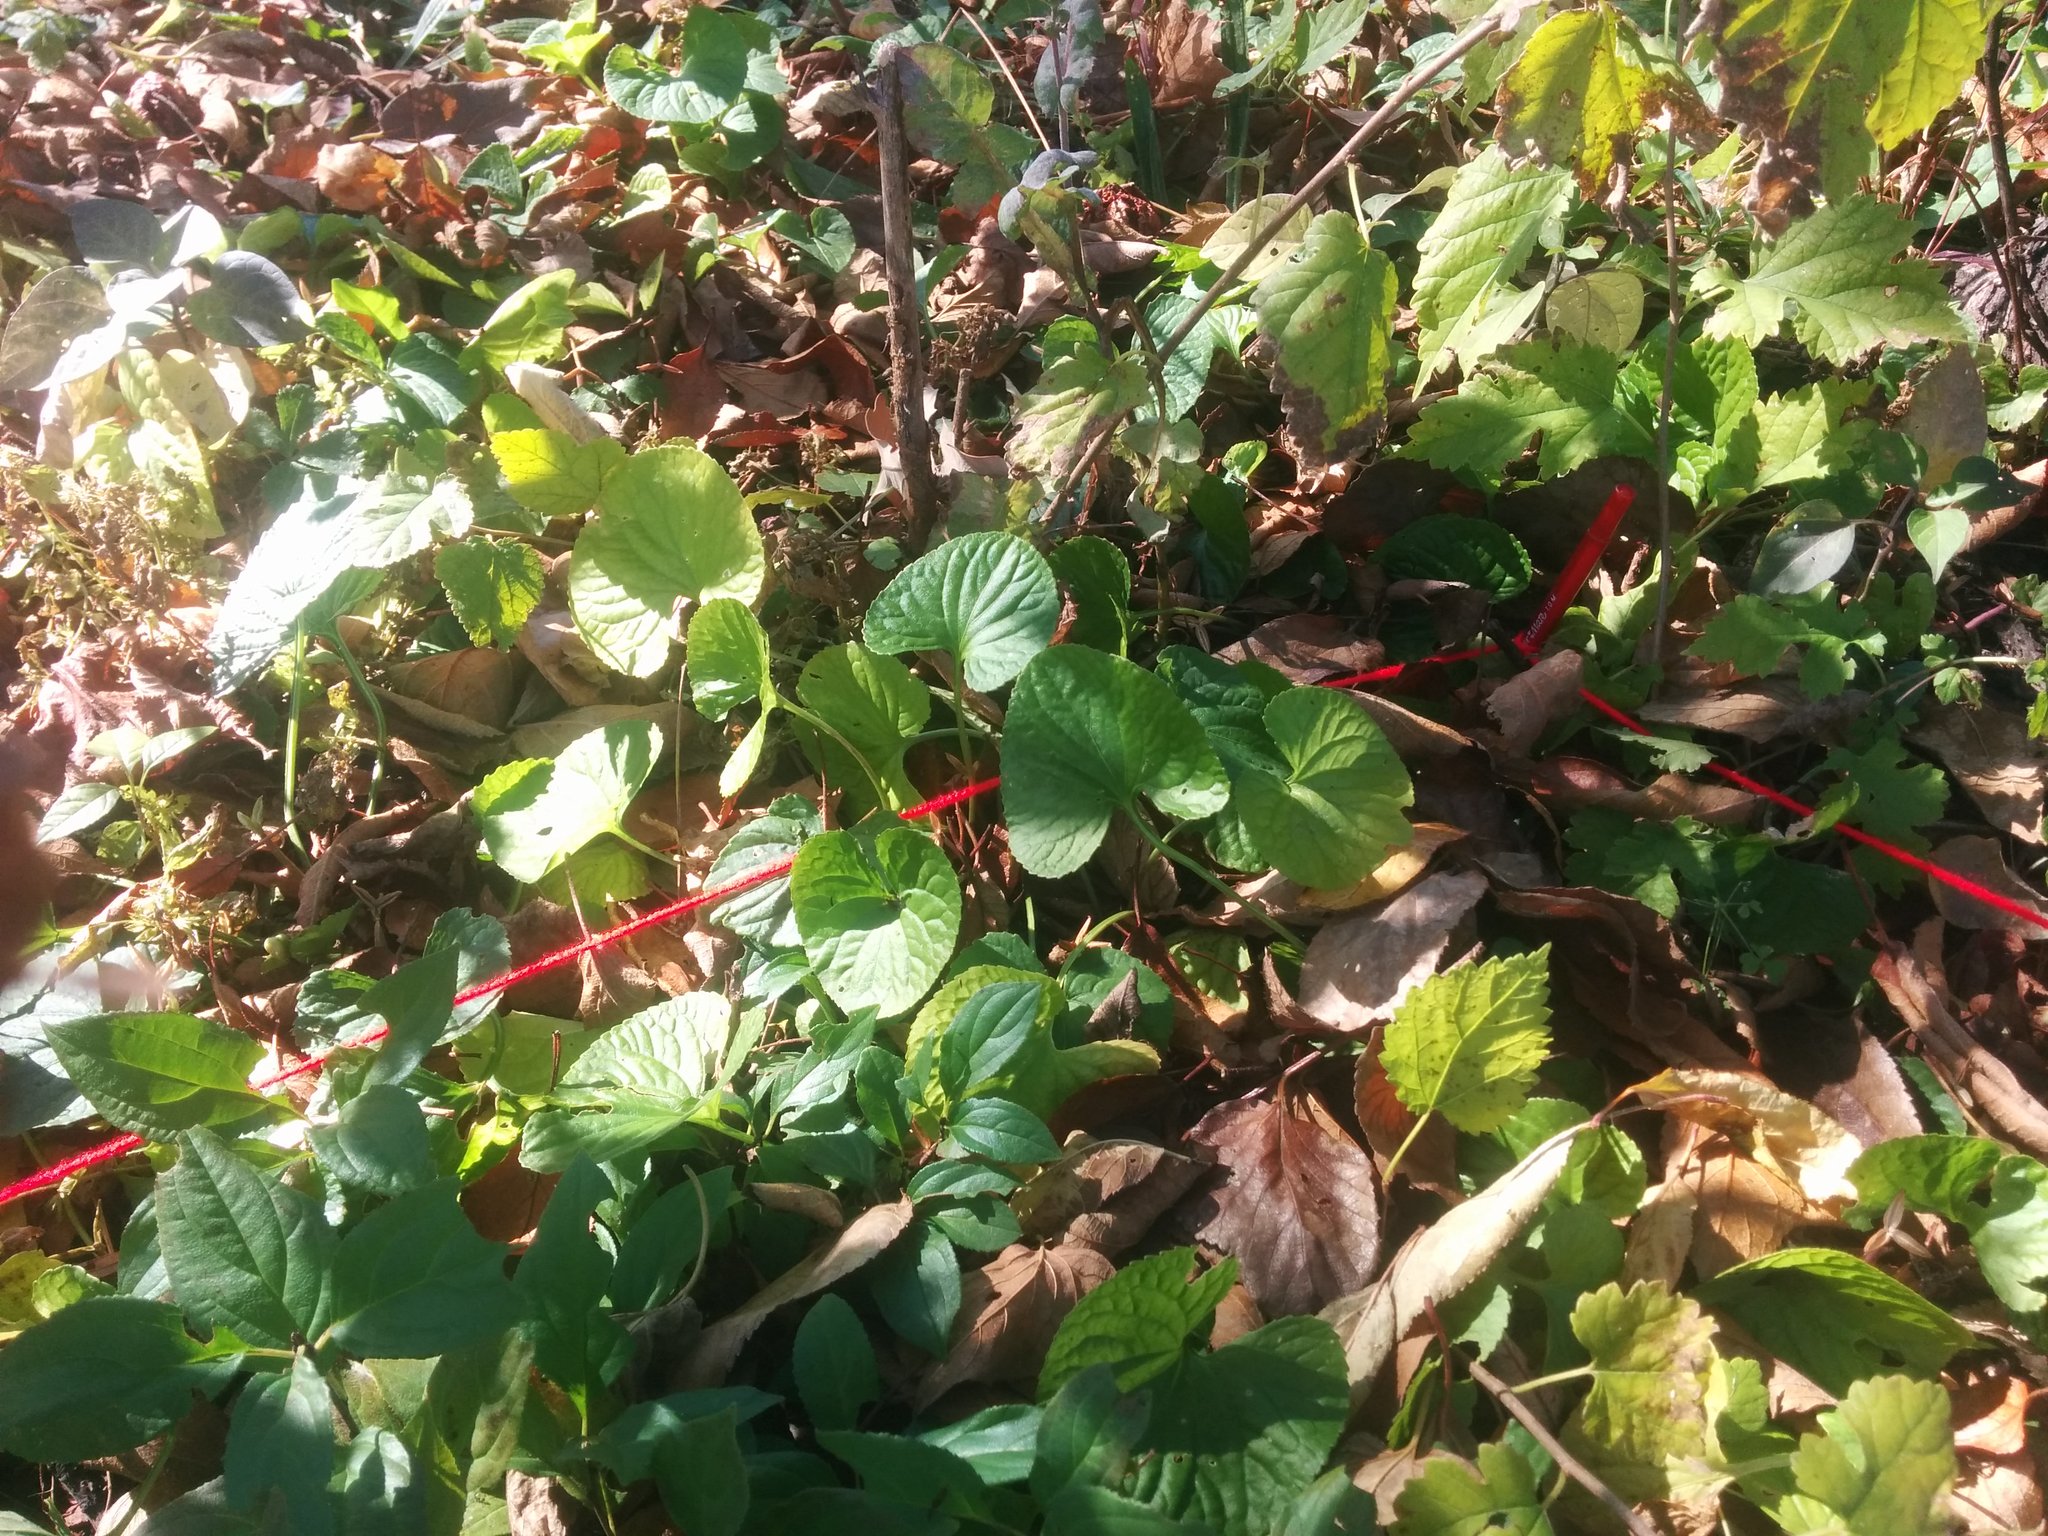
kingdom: Plantae
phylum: Tracheophyta
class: Magnoliopsida
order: Malpighiales
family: Violaceae
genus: Viola
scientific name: Viola sororia
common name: Dooryard violet
